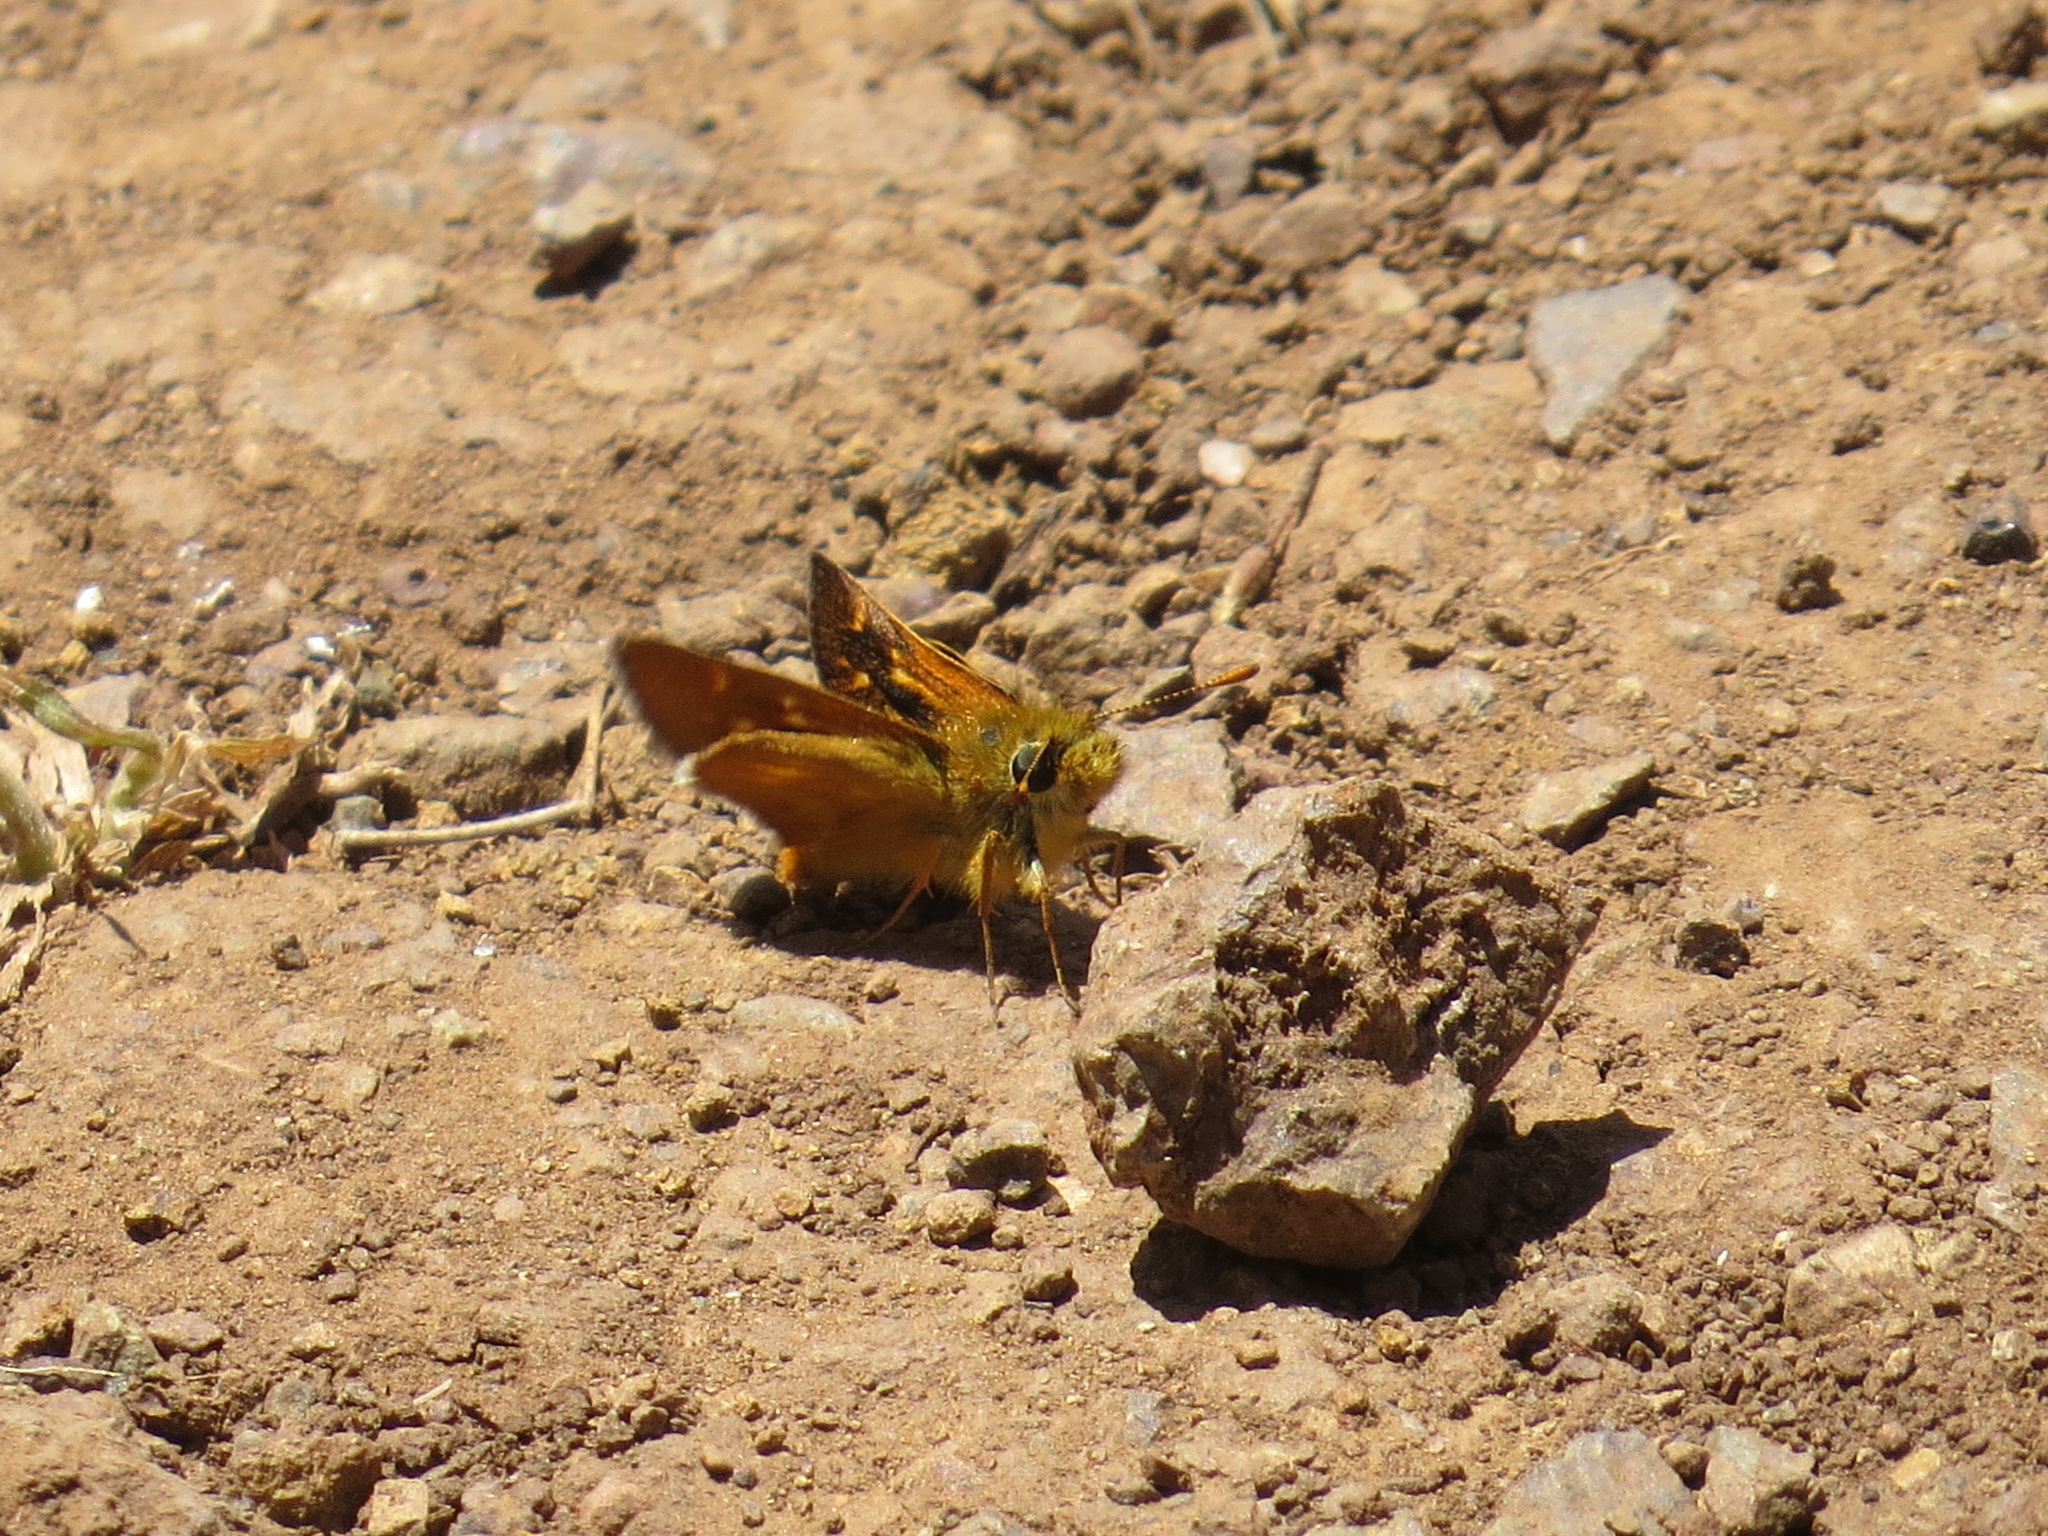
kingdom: Animalia
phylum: Arthropoda
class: Insecta
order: Lepidoptera
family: Hesperiidae
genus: Ochlodes
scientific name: Ochlodes agricola
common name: Rural skipper
